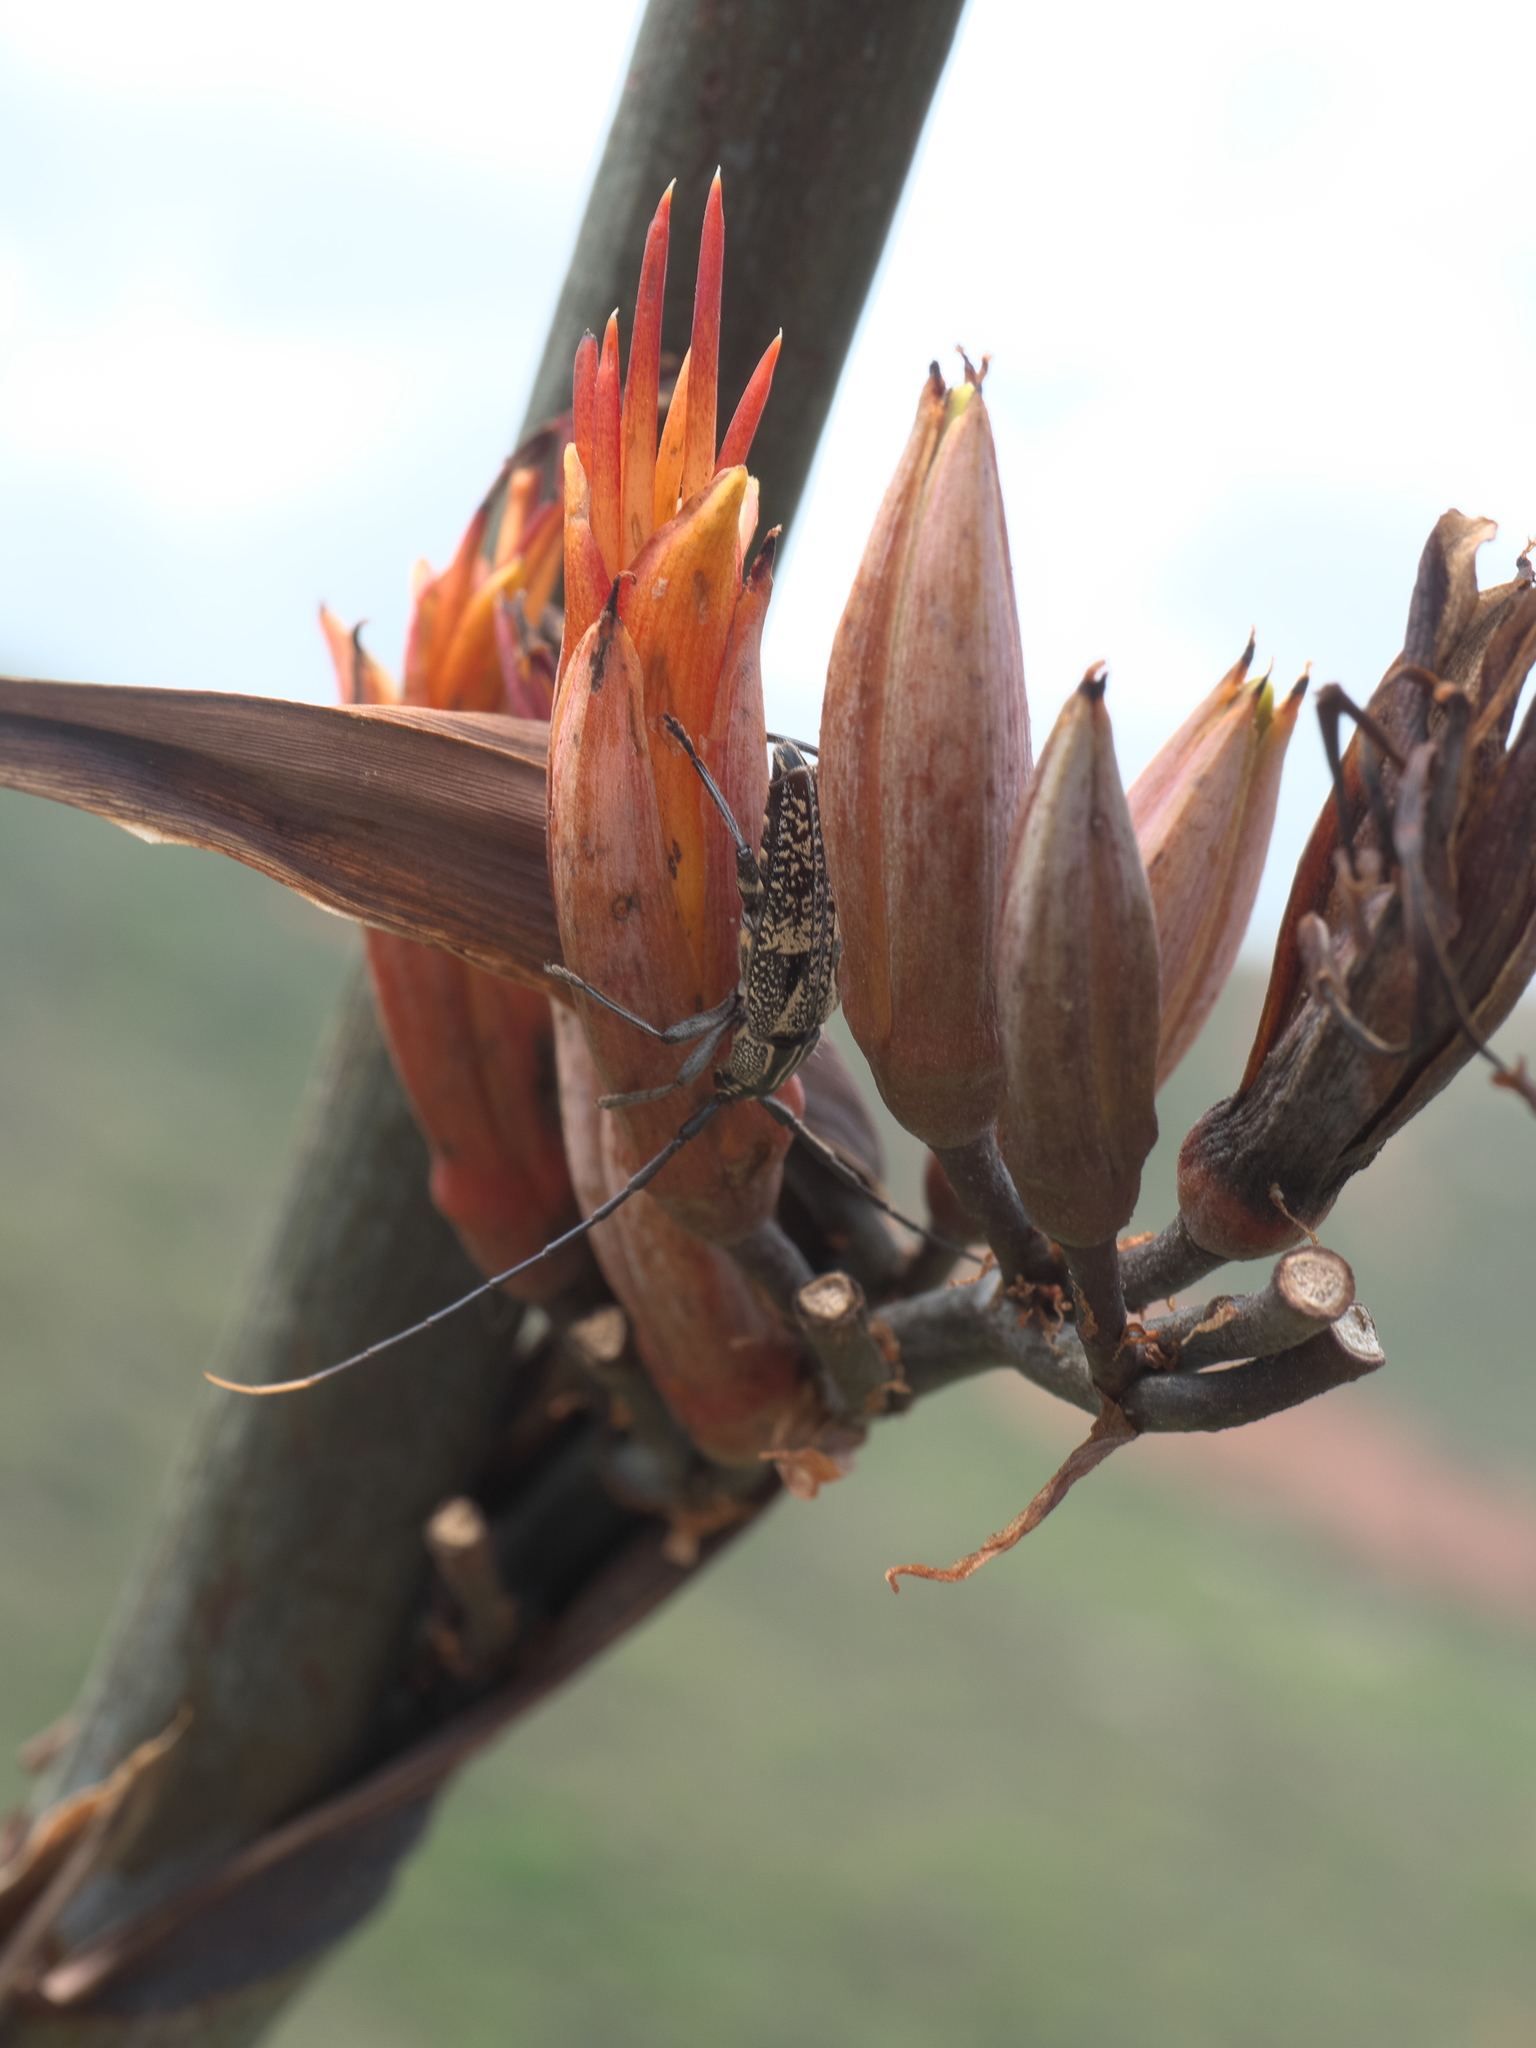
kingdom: Animalia
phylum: Arthropoda
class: Insecta
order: Coleoptera
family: Cerambycidae
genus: Coptomma
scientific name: Coptomma variegatum
